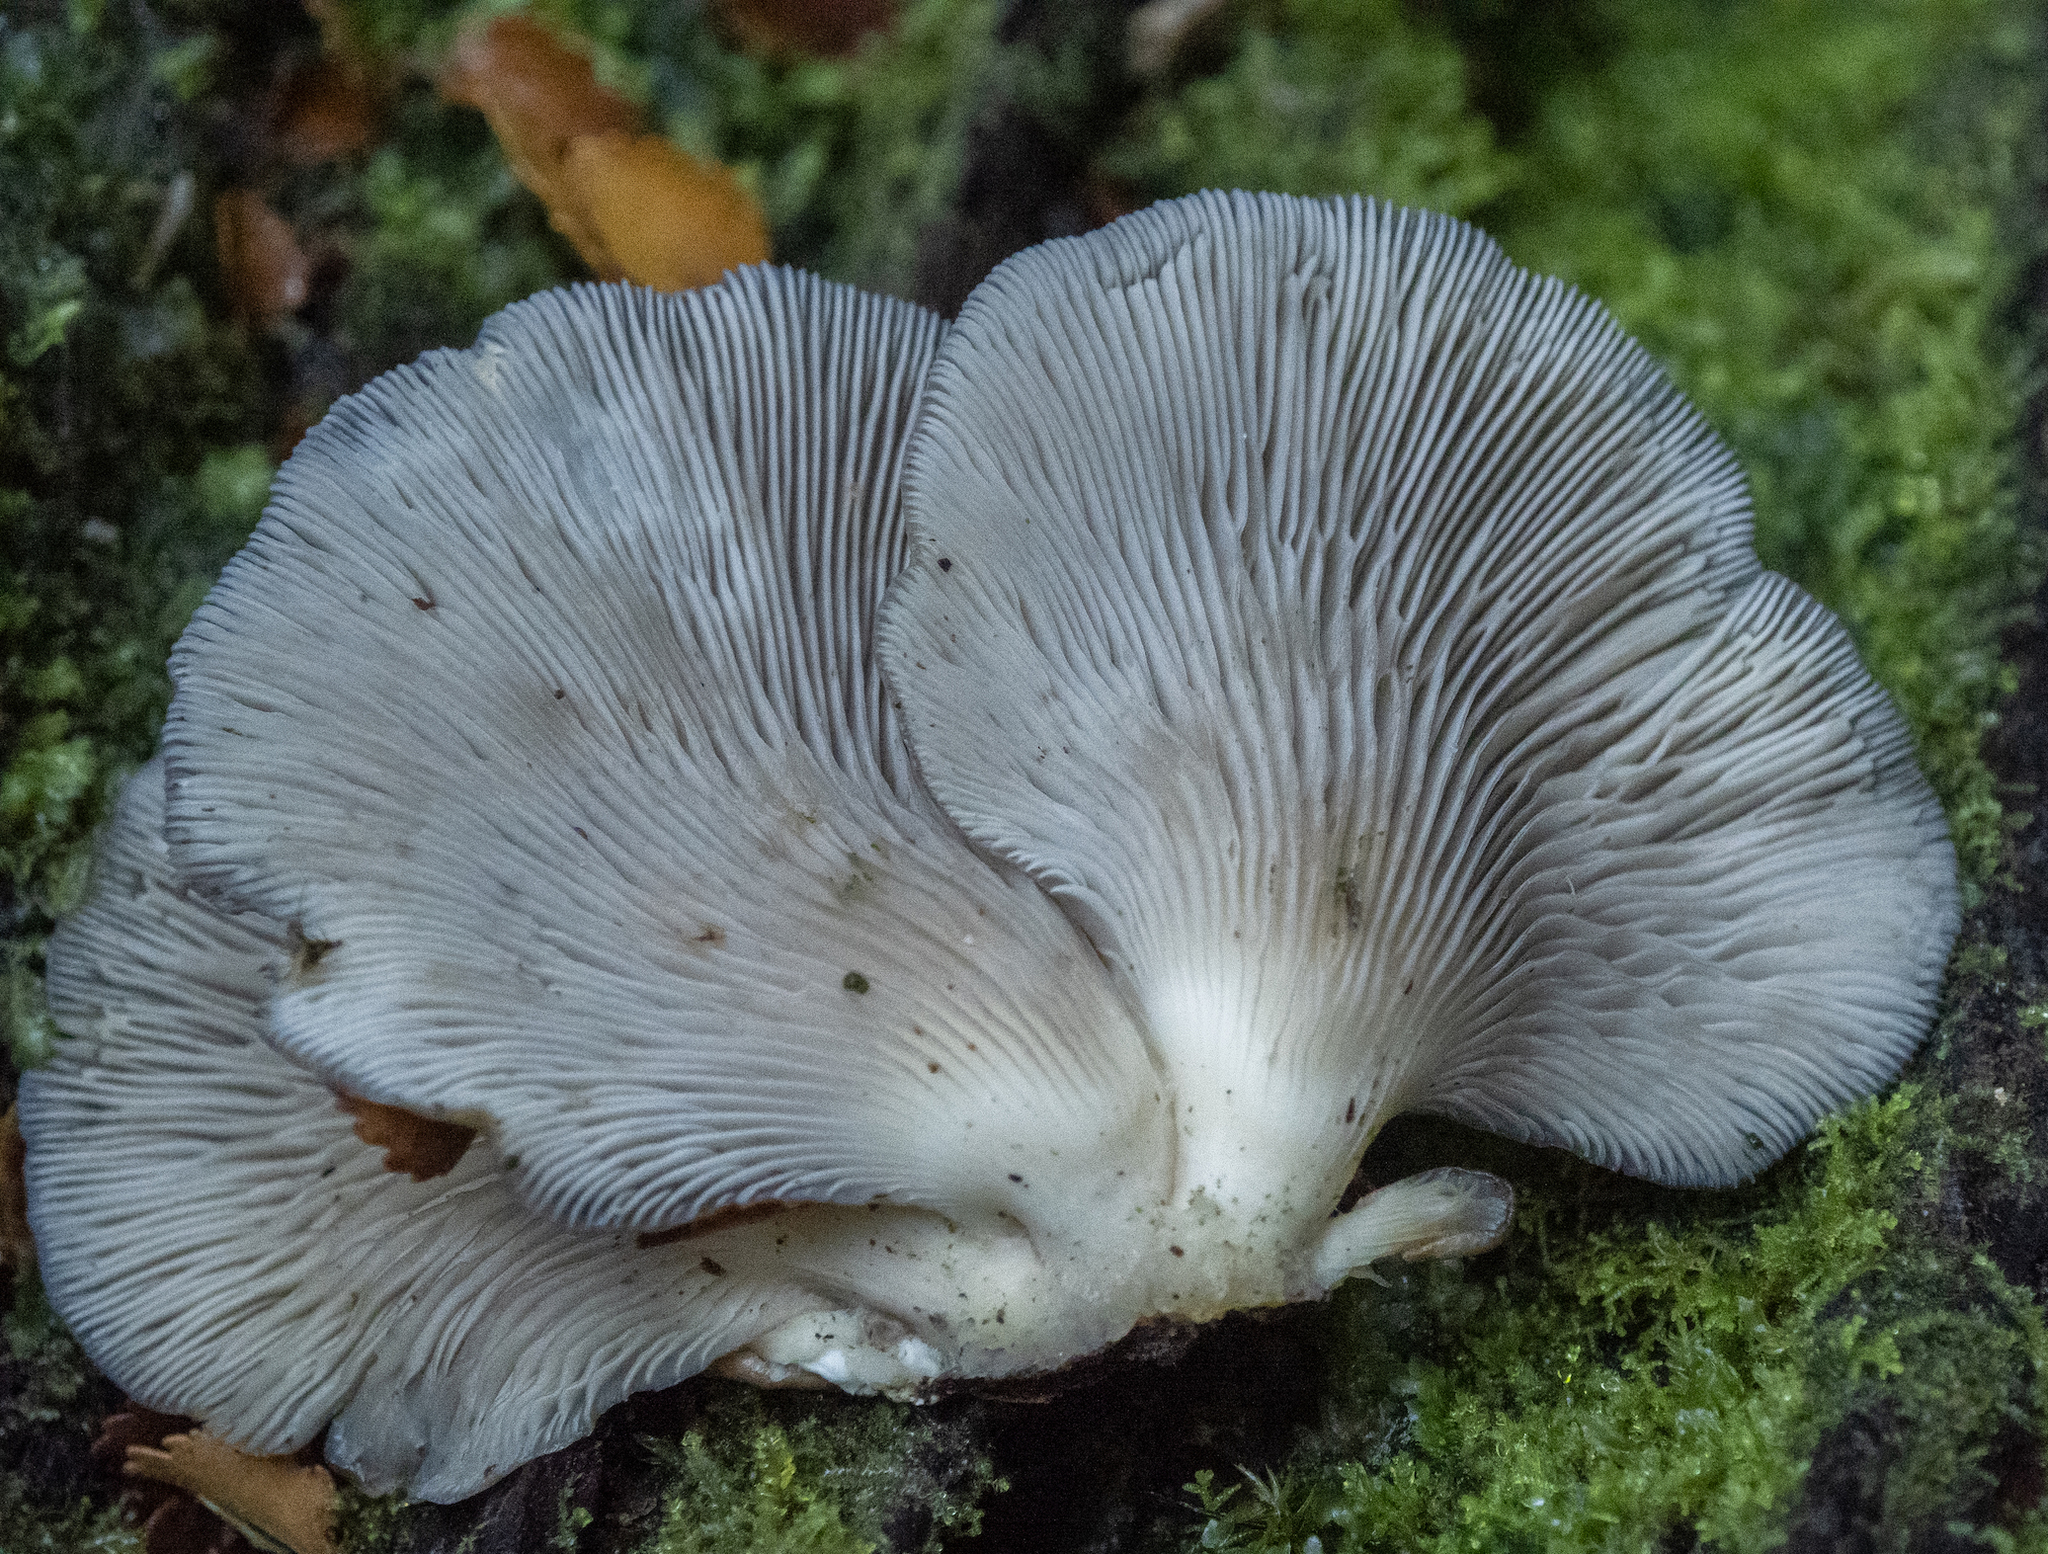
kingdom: Fungi
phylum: Basidiomycota
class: Agaricomycetes
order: Agaricales
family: Pleurotaceae
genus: Pleurotus
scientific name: Pleurotus purpureo-olivaceus
